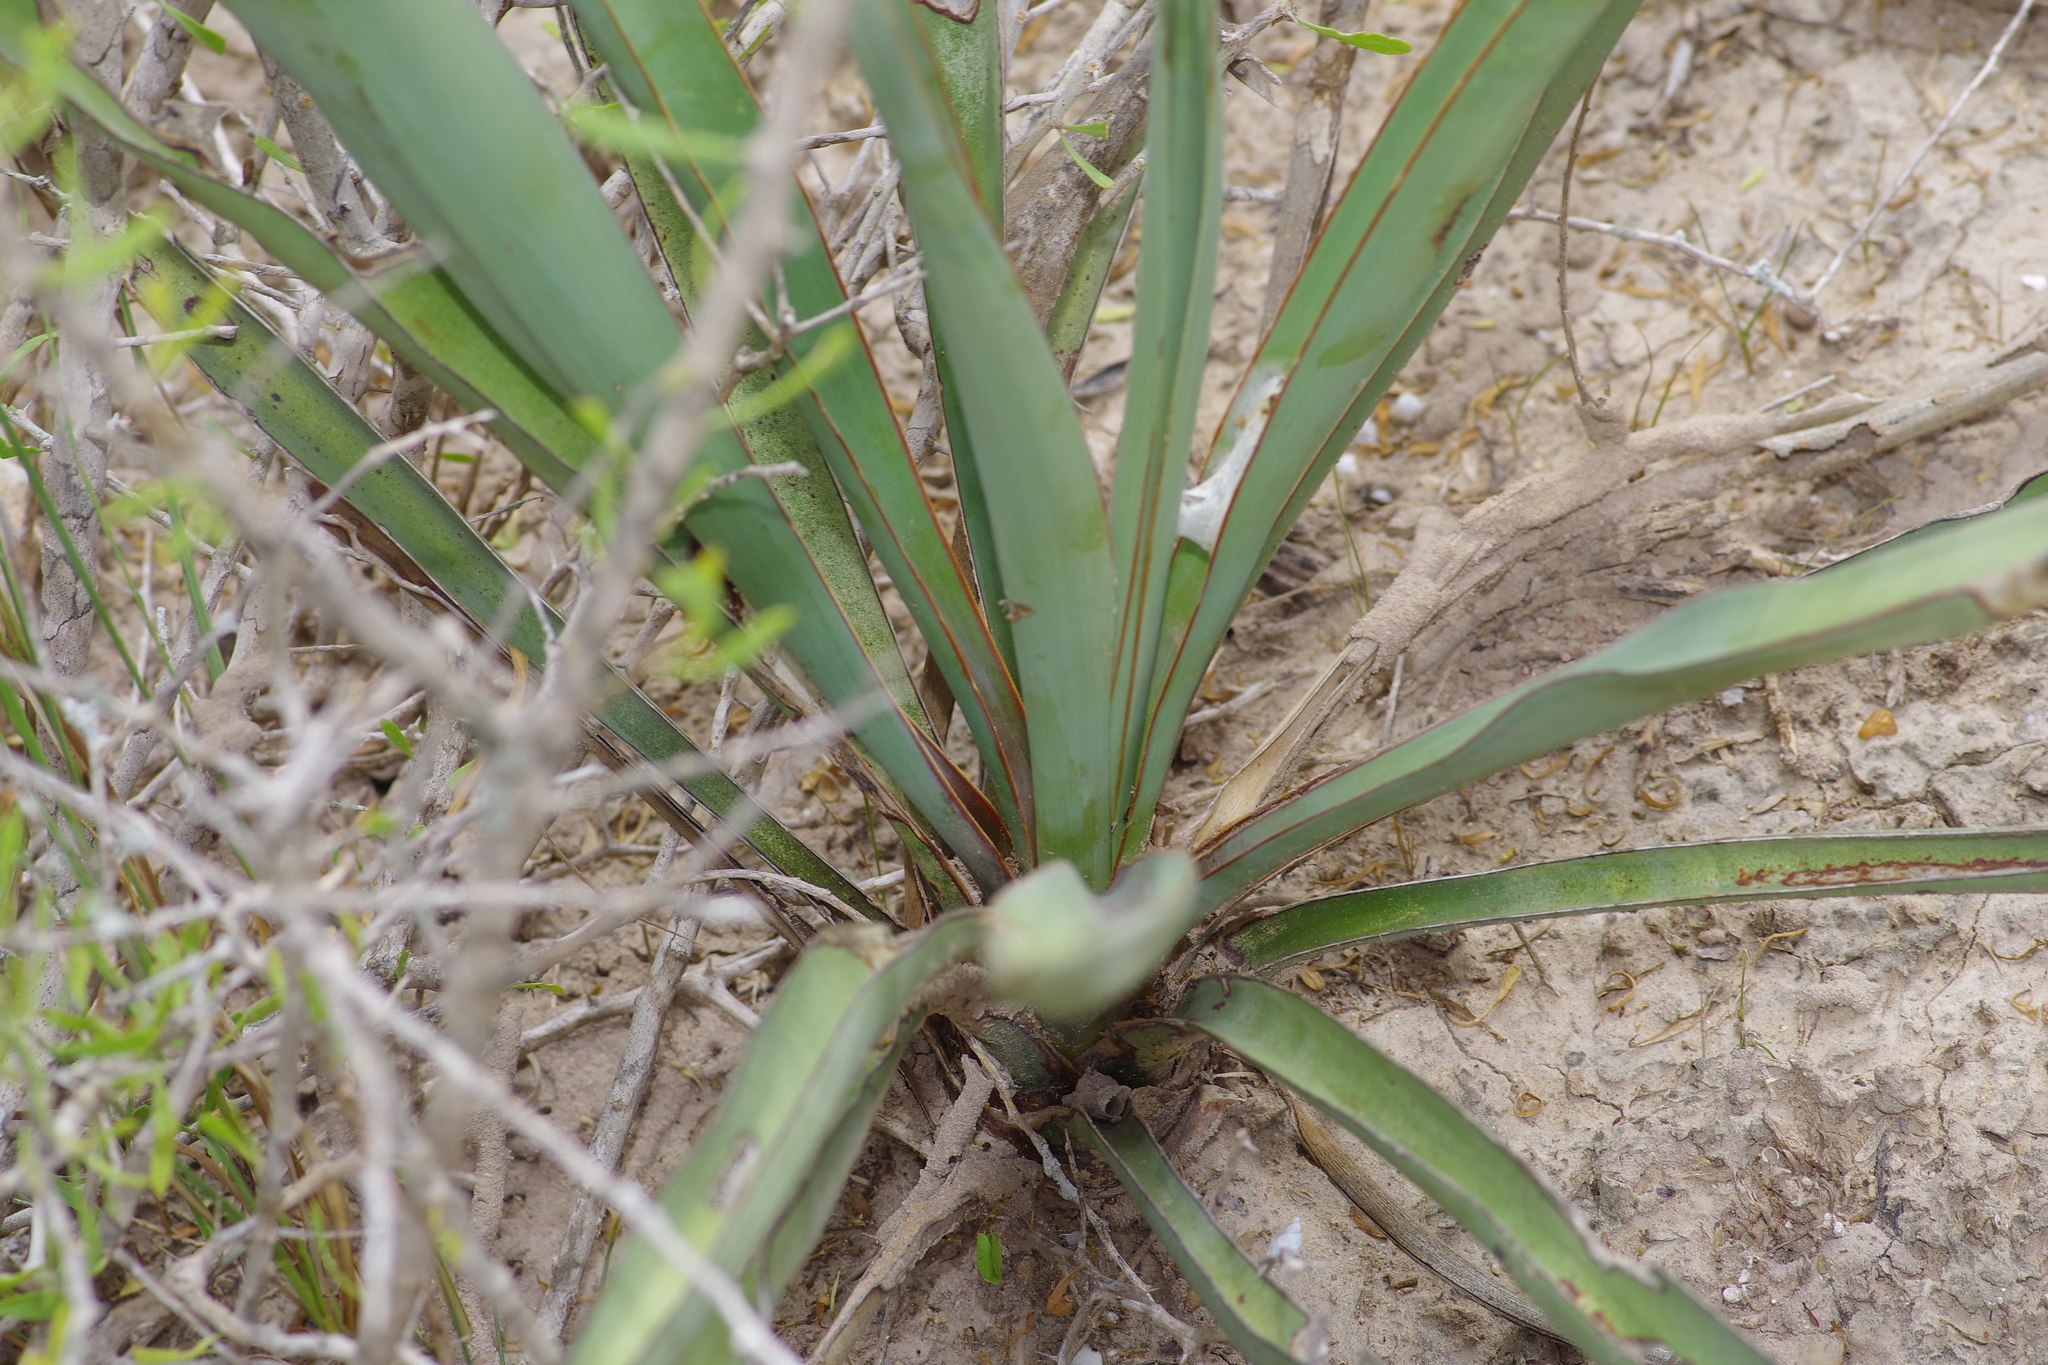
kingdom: Plantae
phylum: Tracheophyta
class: Liliopsida
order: Asparagales
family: Asparagaceae
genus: Yucca
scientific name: Yucca treculiana
